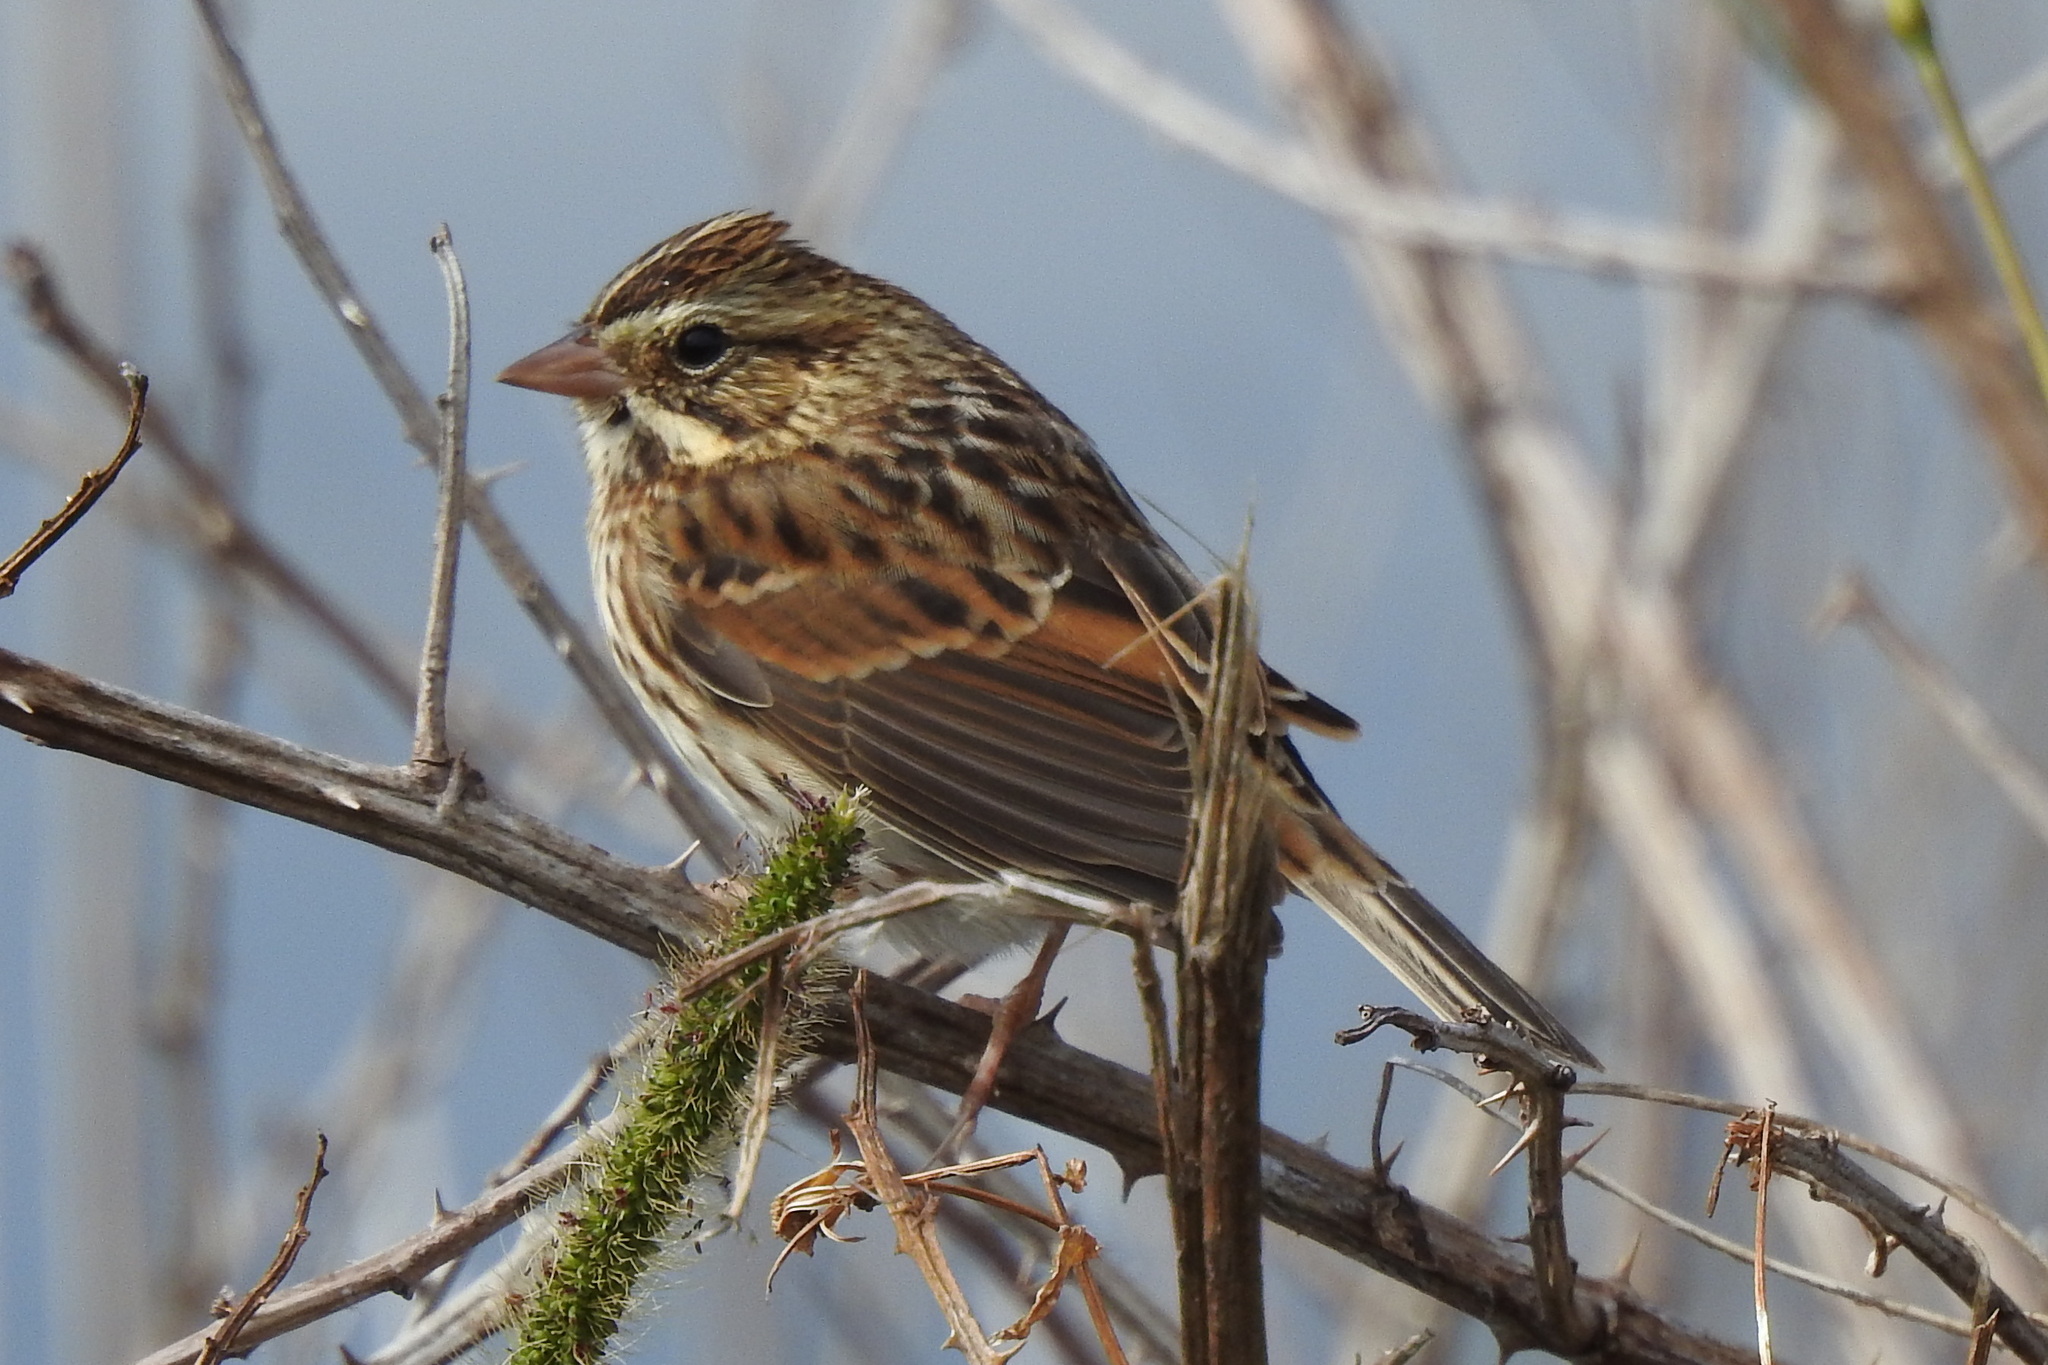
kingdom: Animalia
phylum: Chordata
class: Aves
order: Passeriformes
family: Passerellidae
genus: Passerculus
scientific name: Passerculus sandwichensis
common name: Savannah sparrow
